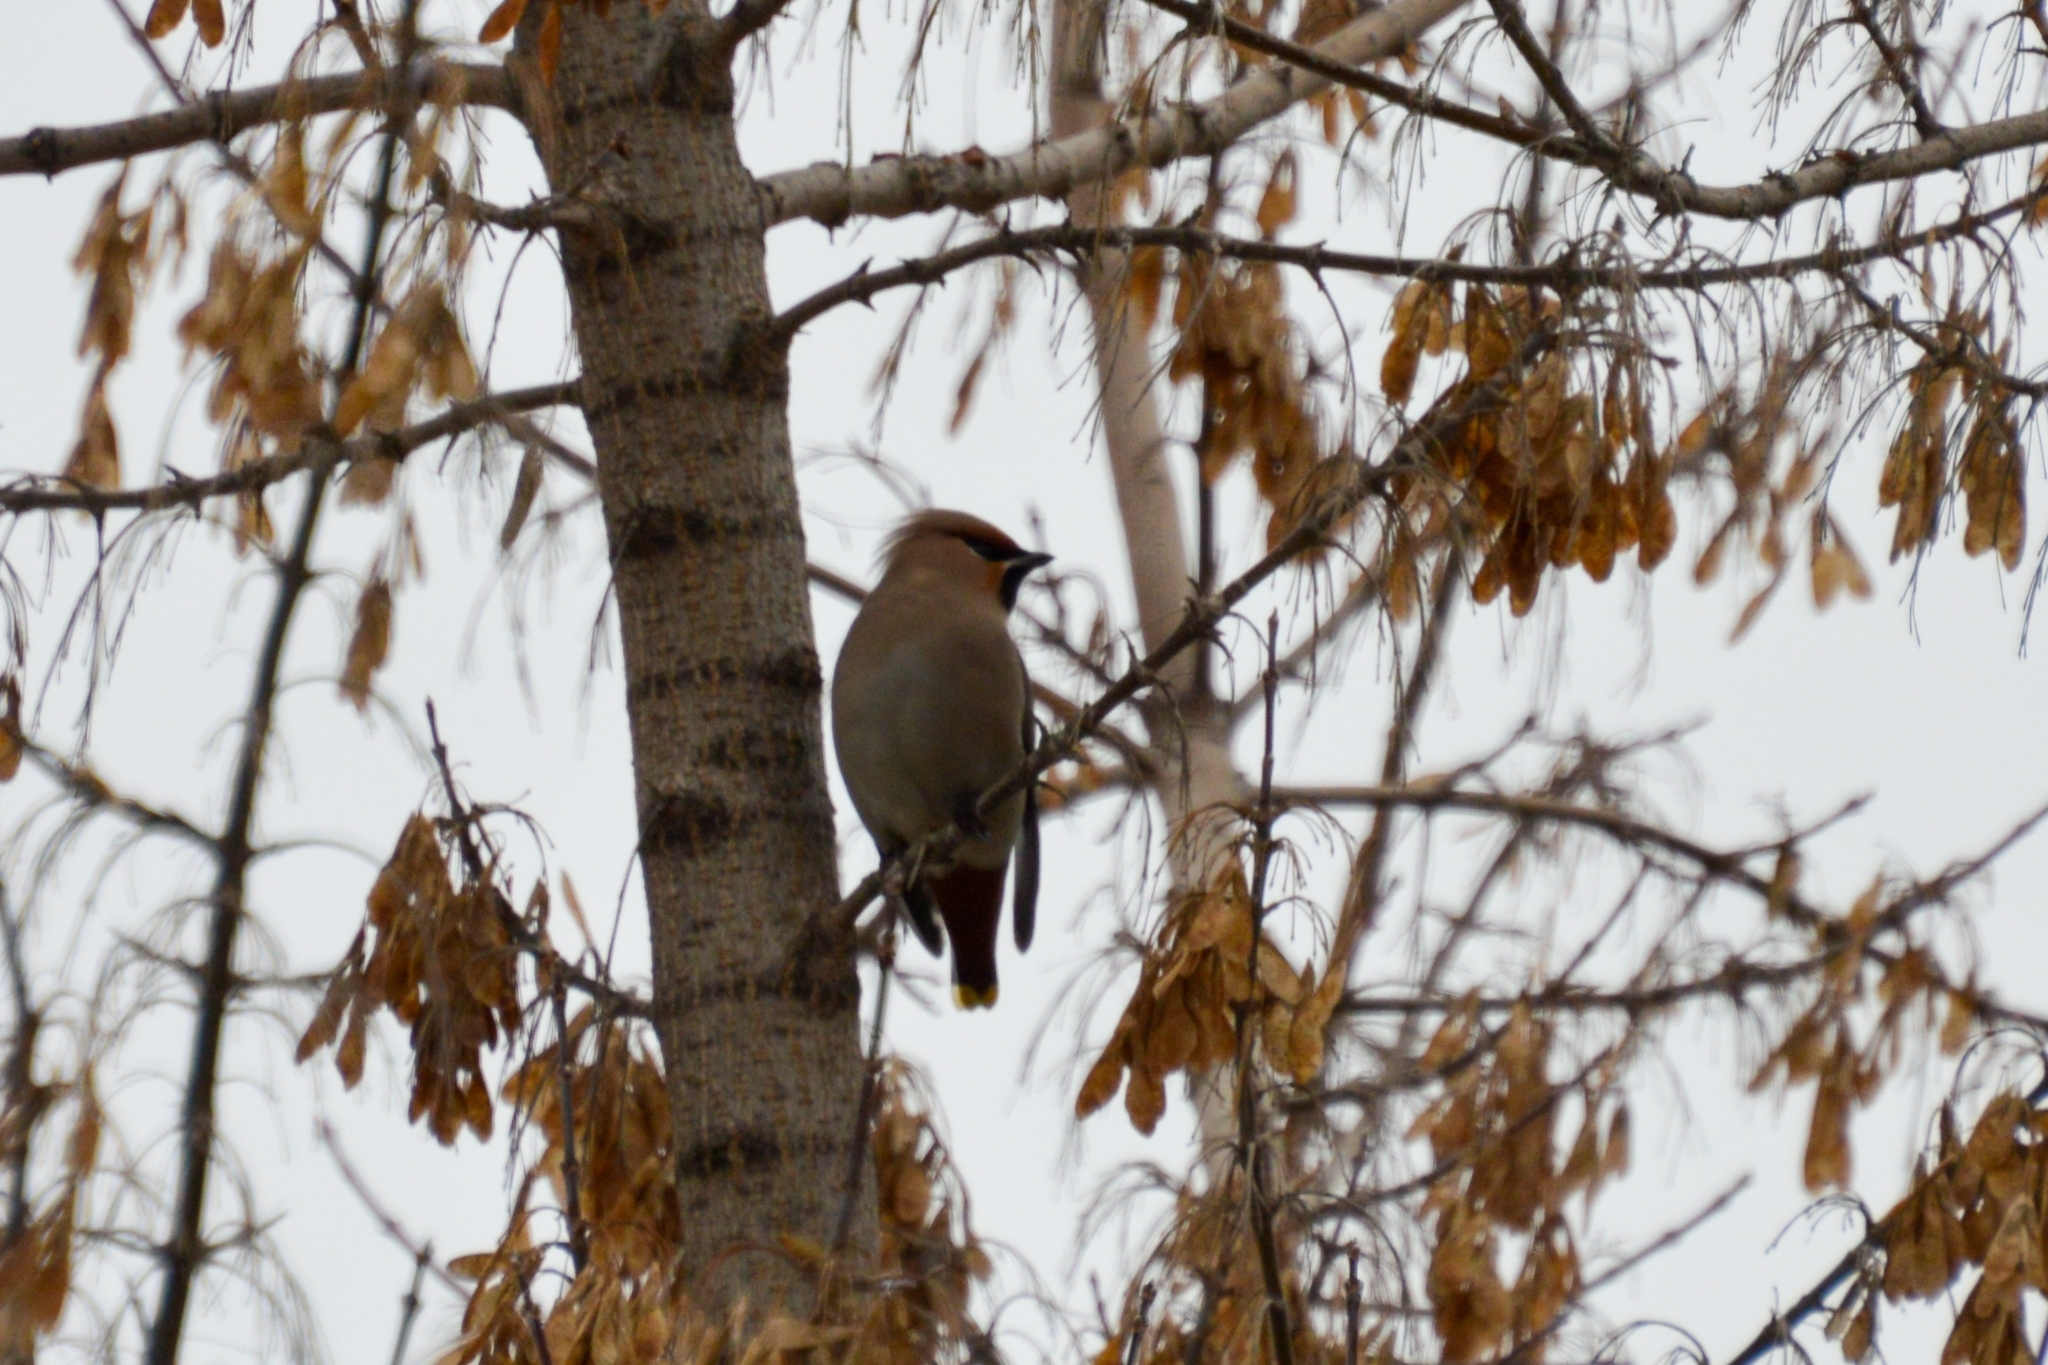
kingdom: Animalia
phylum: Chordata
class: Aves
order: Passeriformes
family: Bombycillidae
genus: Bombycilla
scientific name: Bombycilla garrulus
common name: Bohemian waxwing
